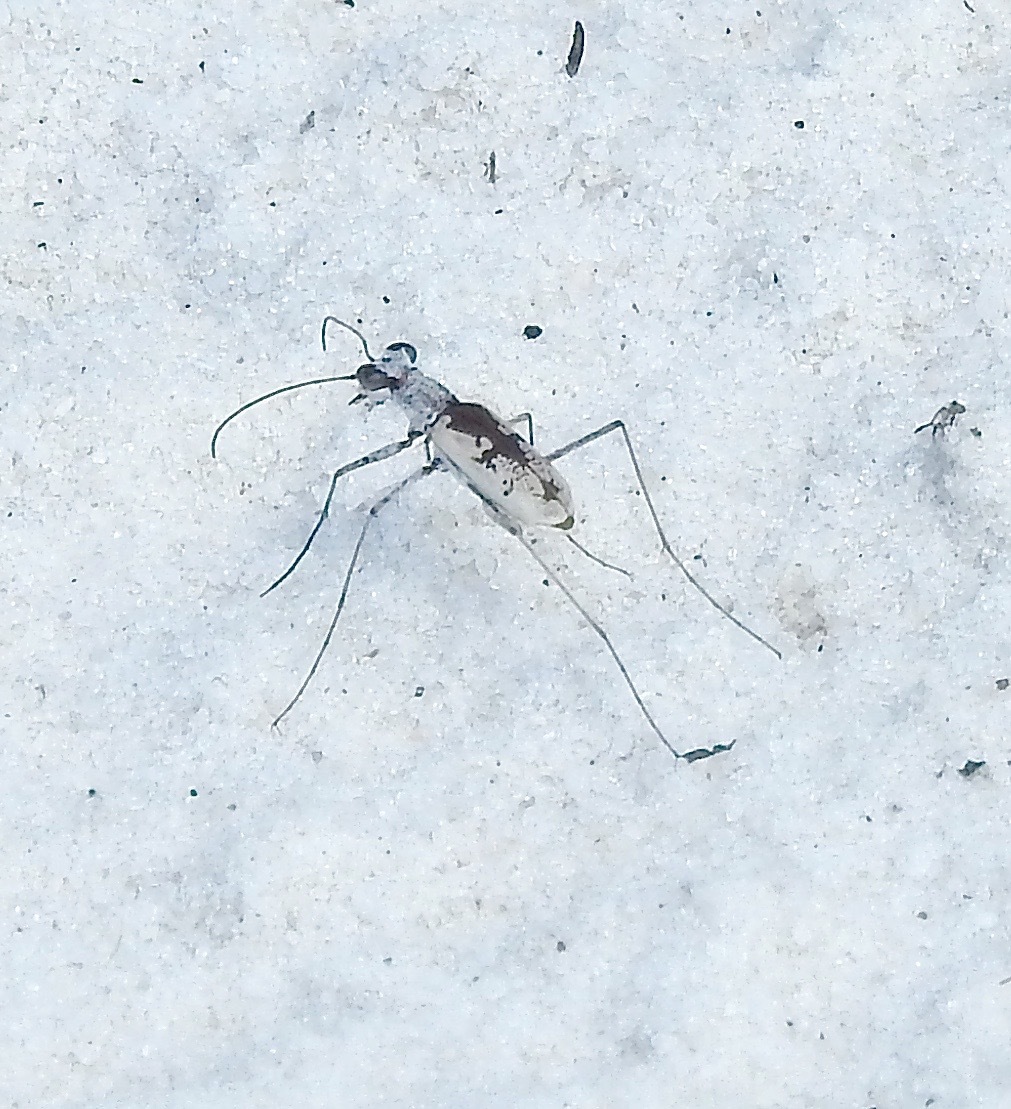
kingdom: Animalia
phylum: Arthropoda
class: Insecta
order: Coleoptera
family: Carabidae
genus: Ellipsoptera
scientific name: Ellipsoptera hirtilabris
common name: Moustached tiger beetle
